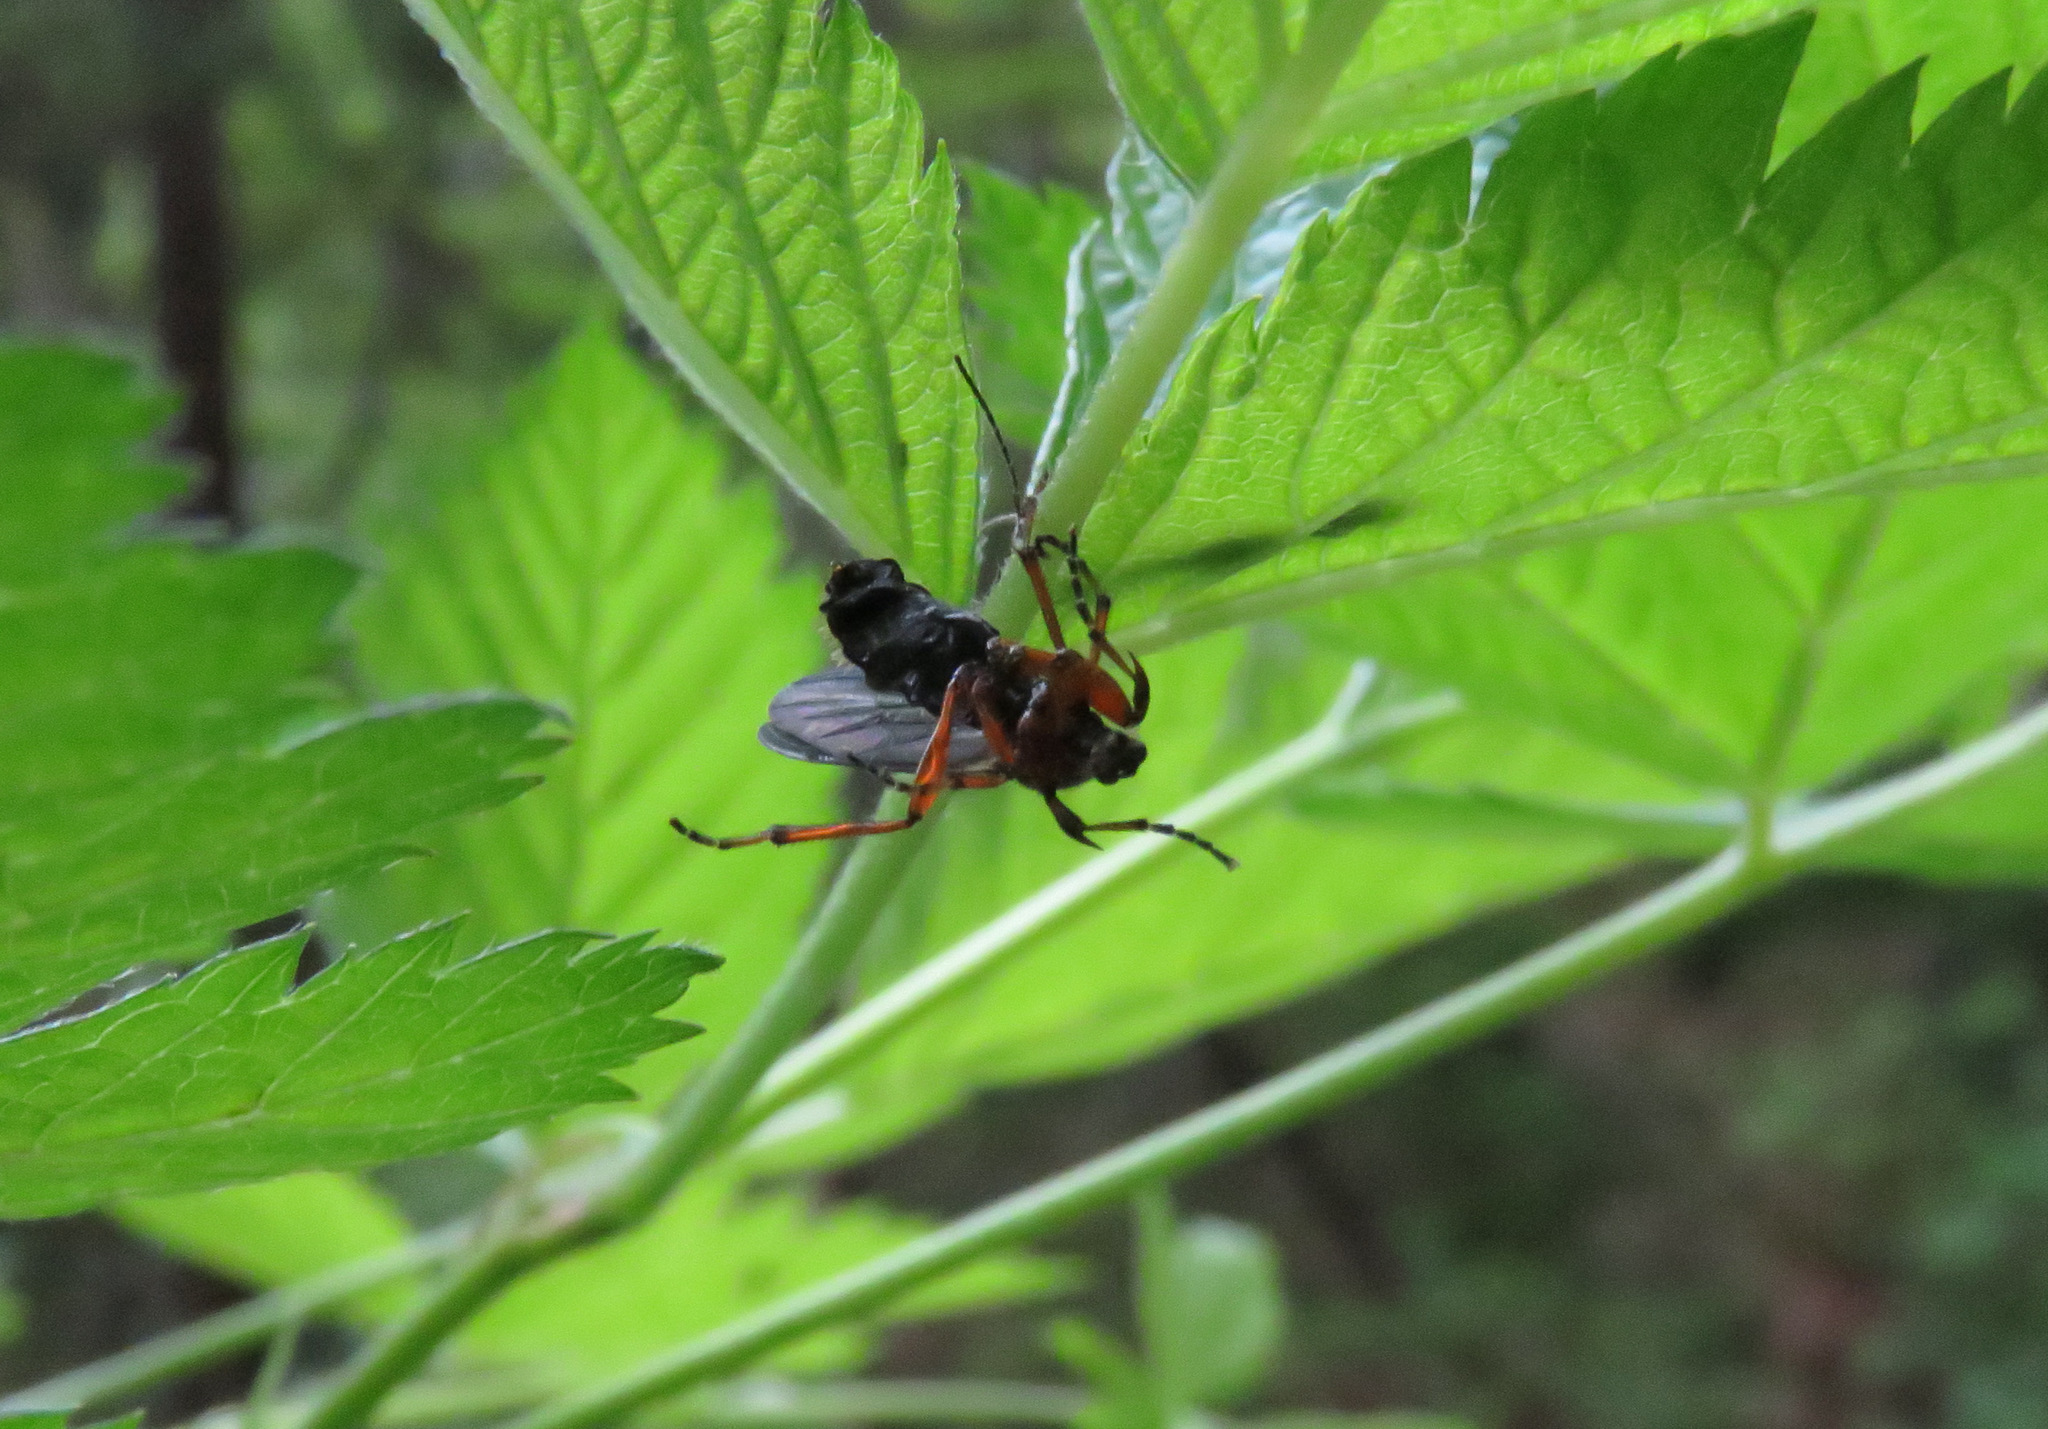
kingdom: Animalia
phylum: Arthropoda
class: Insecta
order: Diptera
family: Bibionidae
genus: Bibio
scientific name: Bibio
